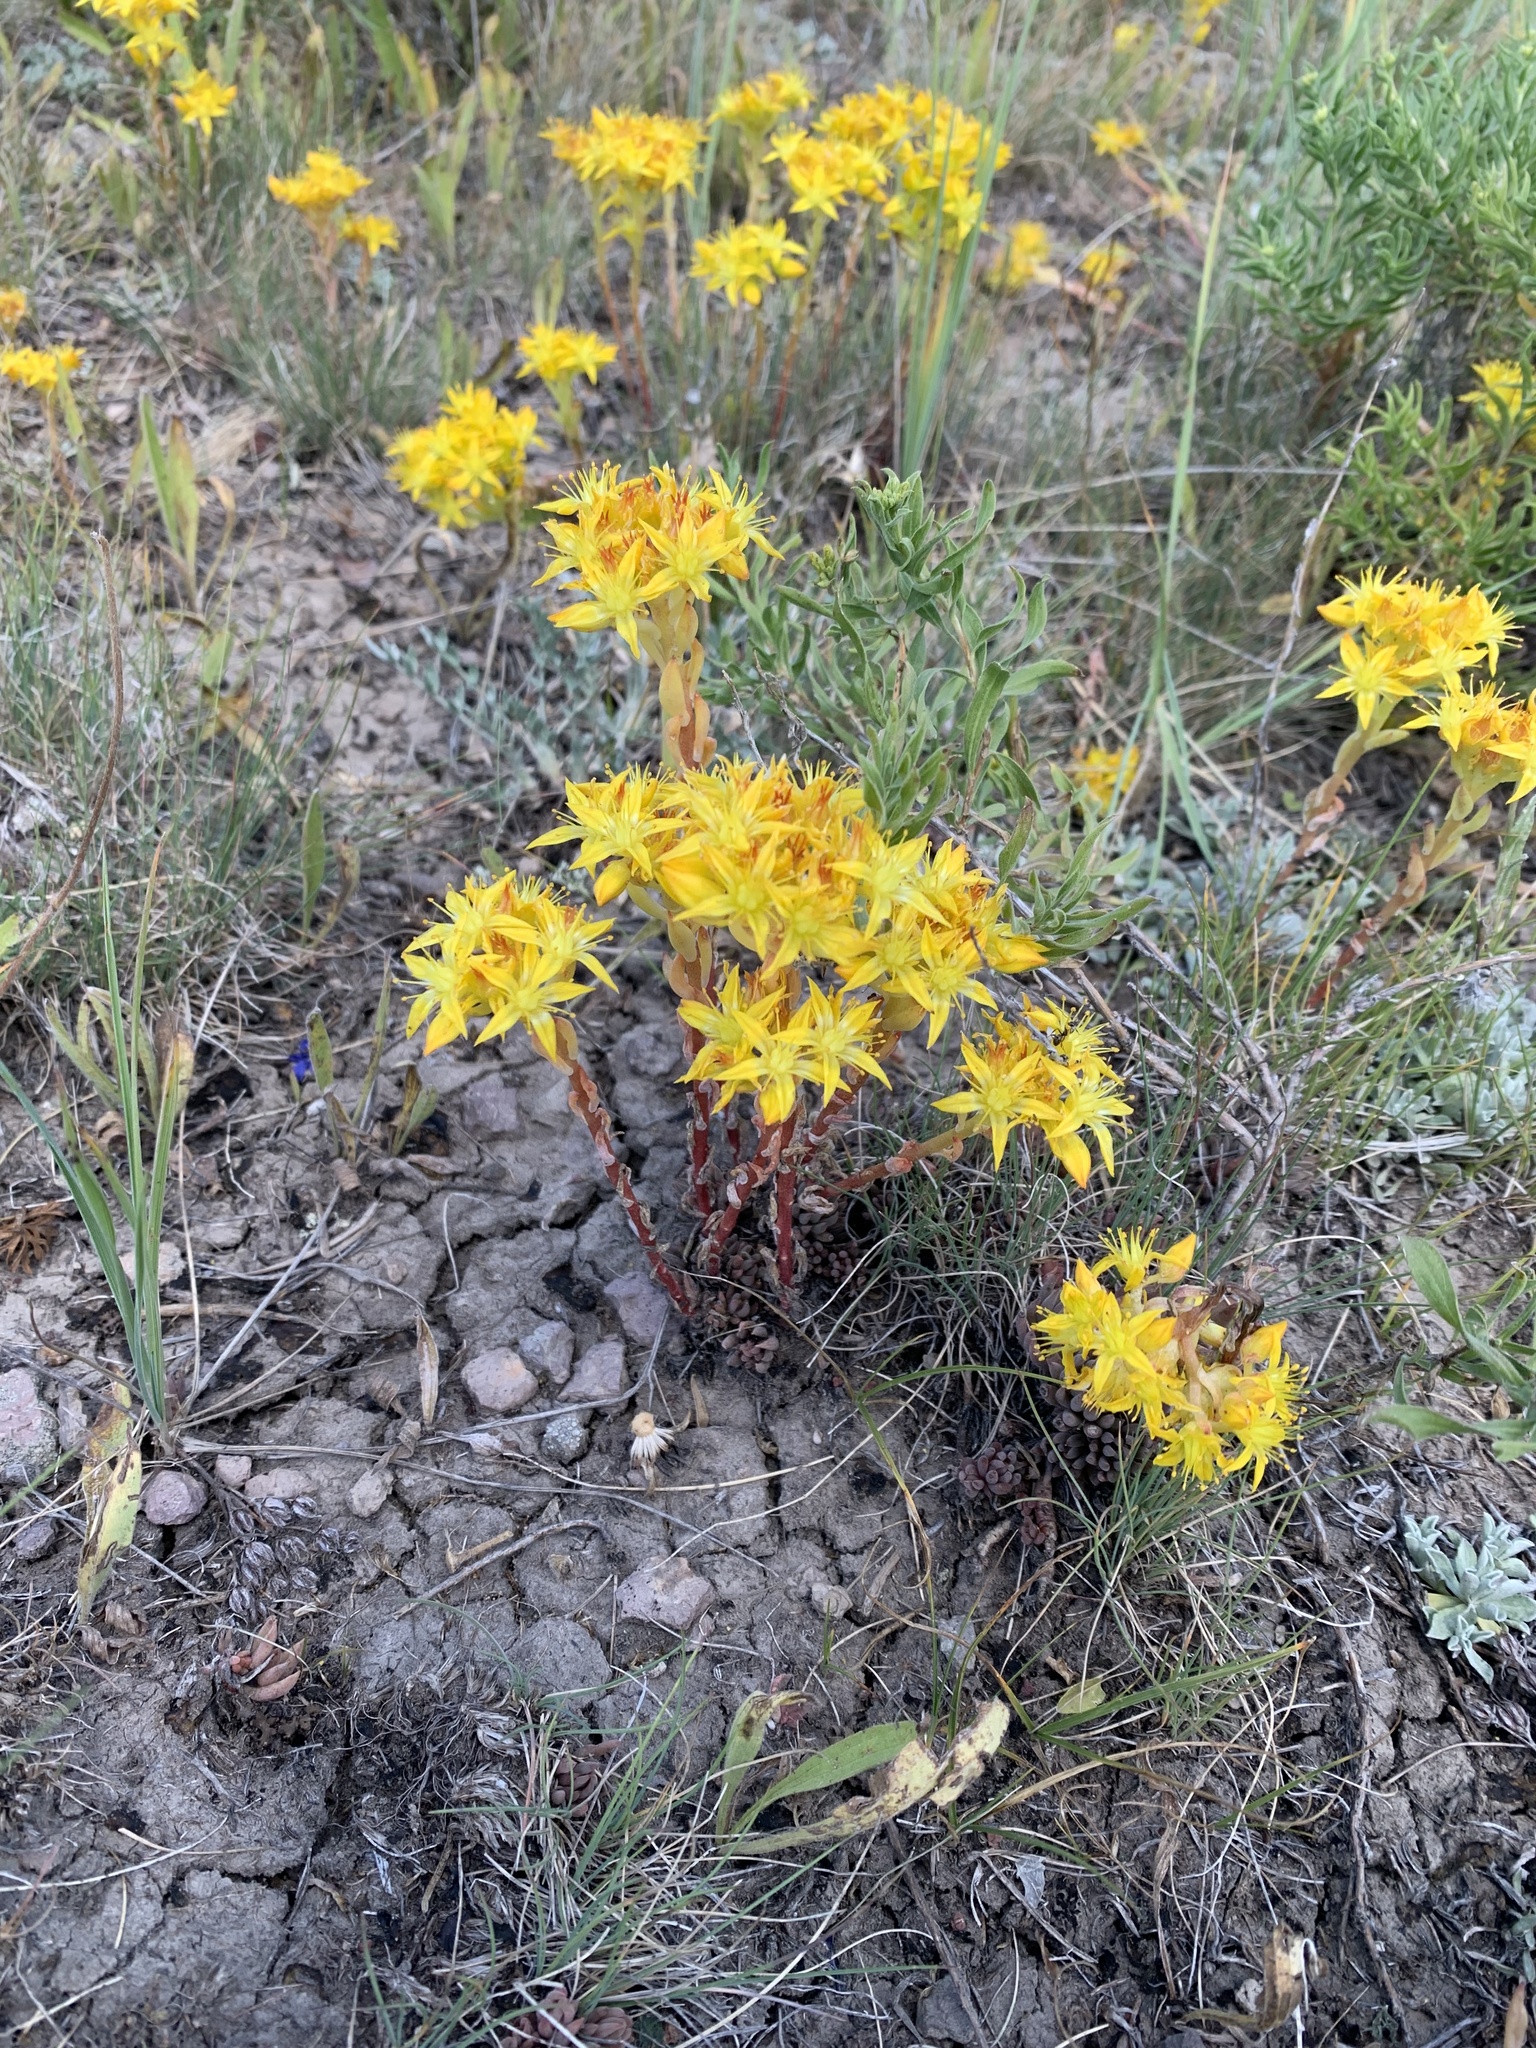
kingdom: Plantae
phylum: Tracheophyta
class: Magnoliopsida
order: Saxifragales
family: Crassulaceae
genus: Sedum
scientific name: Sedum lanceolatum
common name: Common stonecrop
